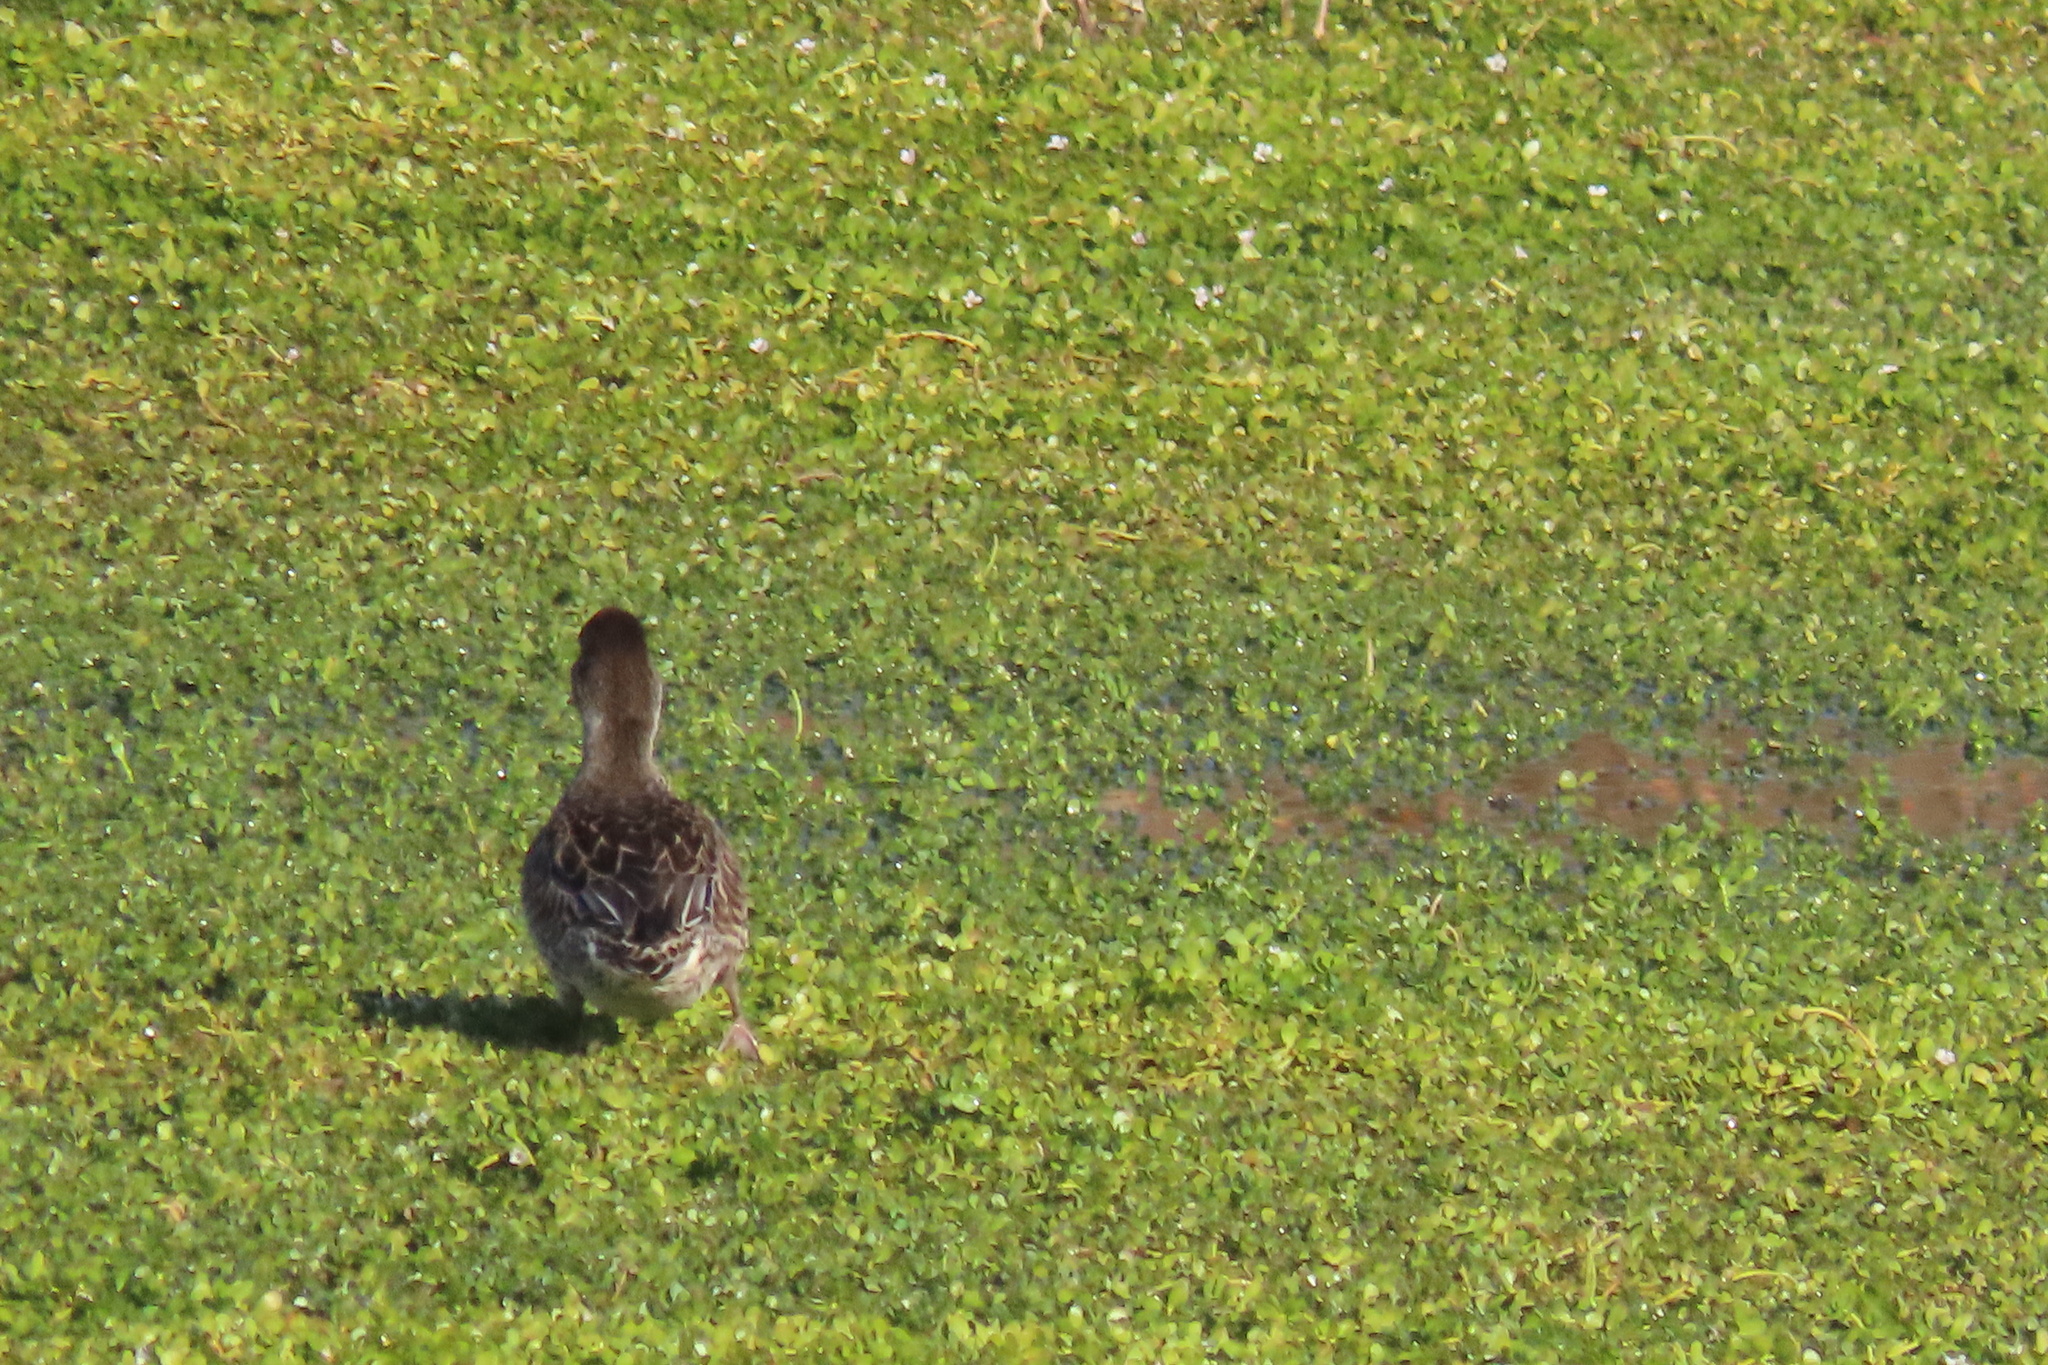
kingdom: Animalia
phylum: Chordata
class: Aves
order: Anseriformes
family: Anatidae
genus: Anas
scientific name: Anas crecca
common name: Eurasian teal
